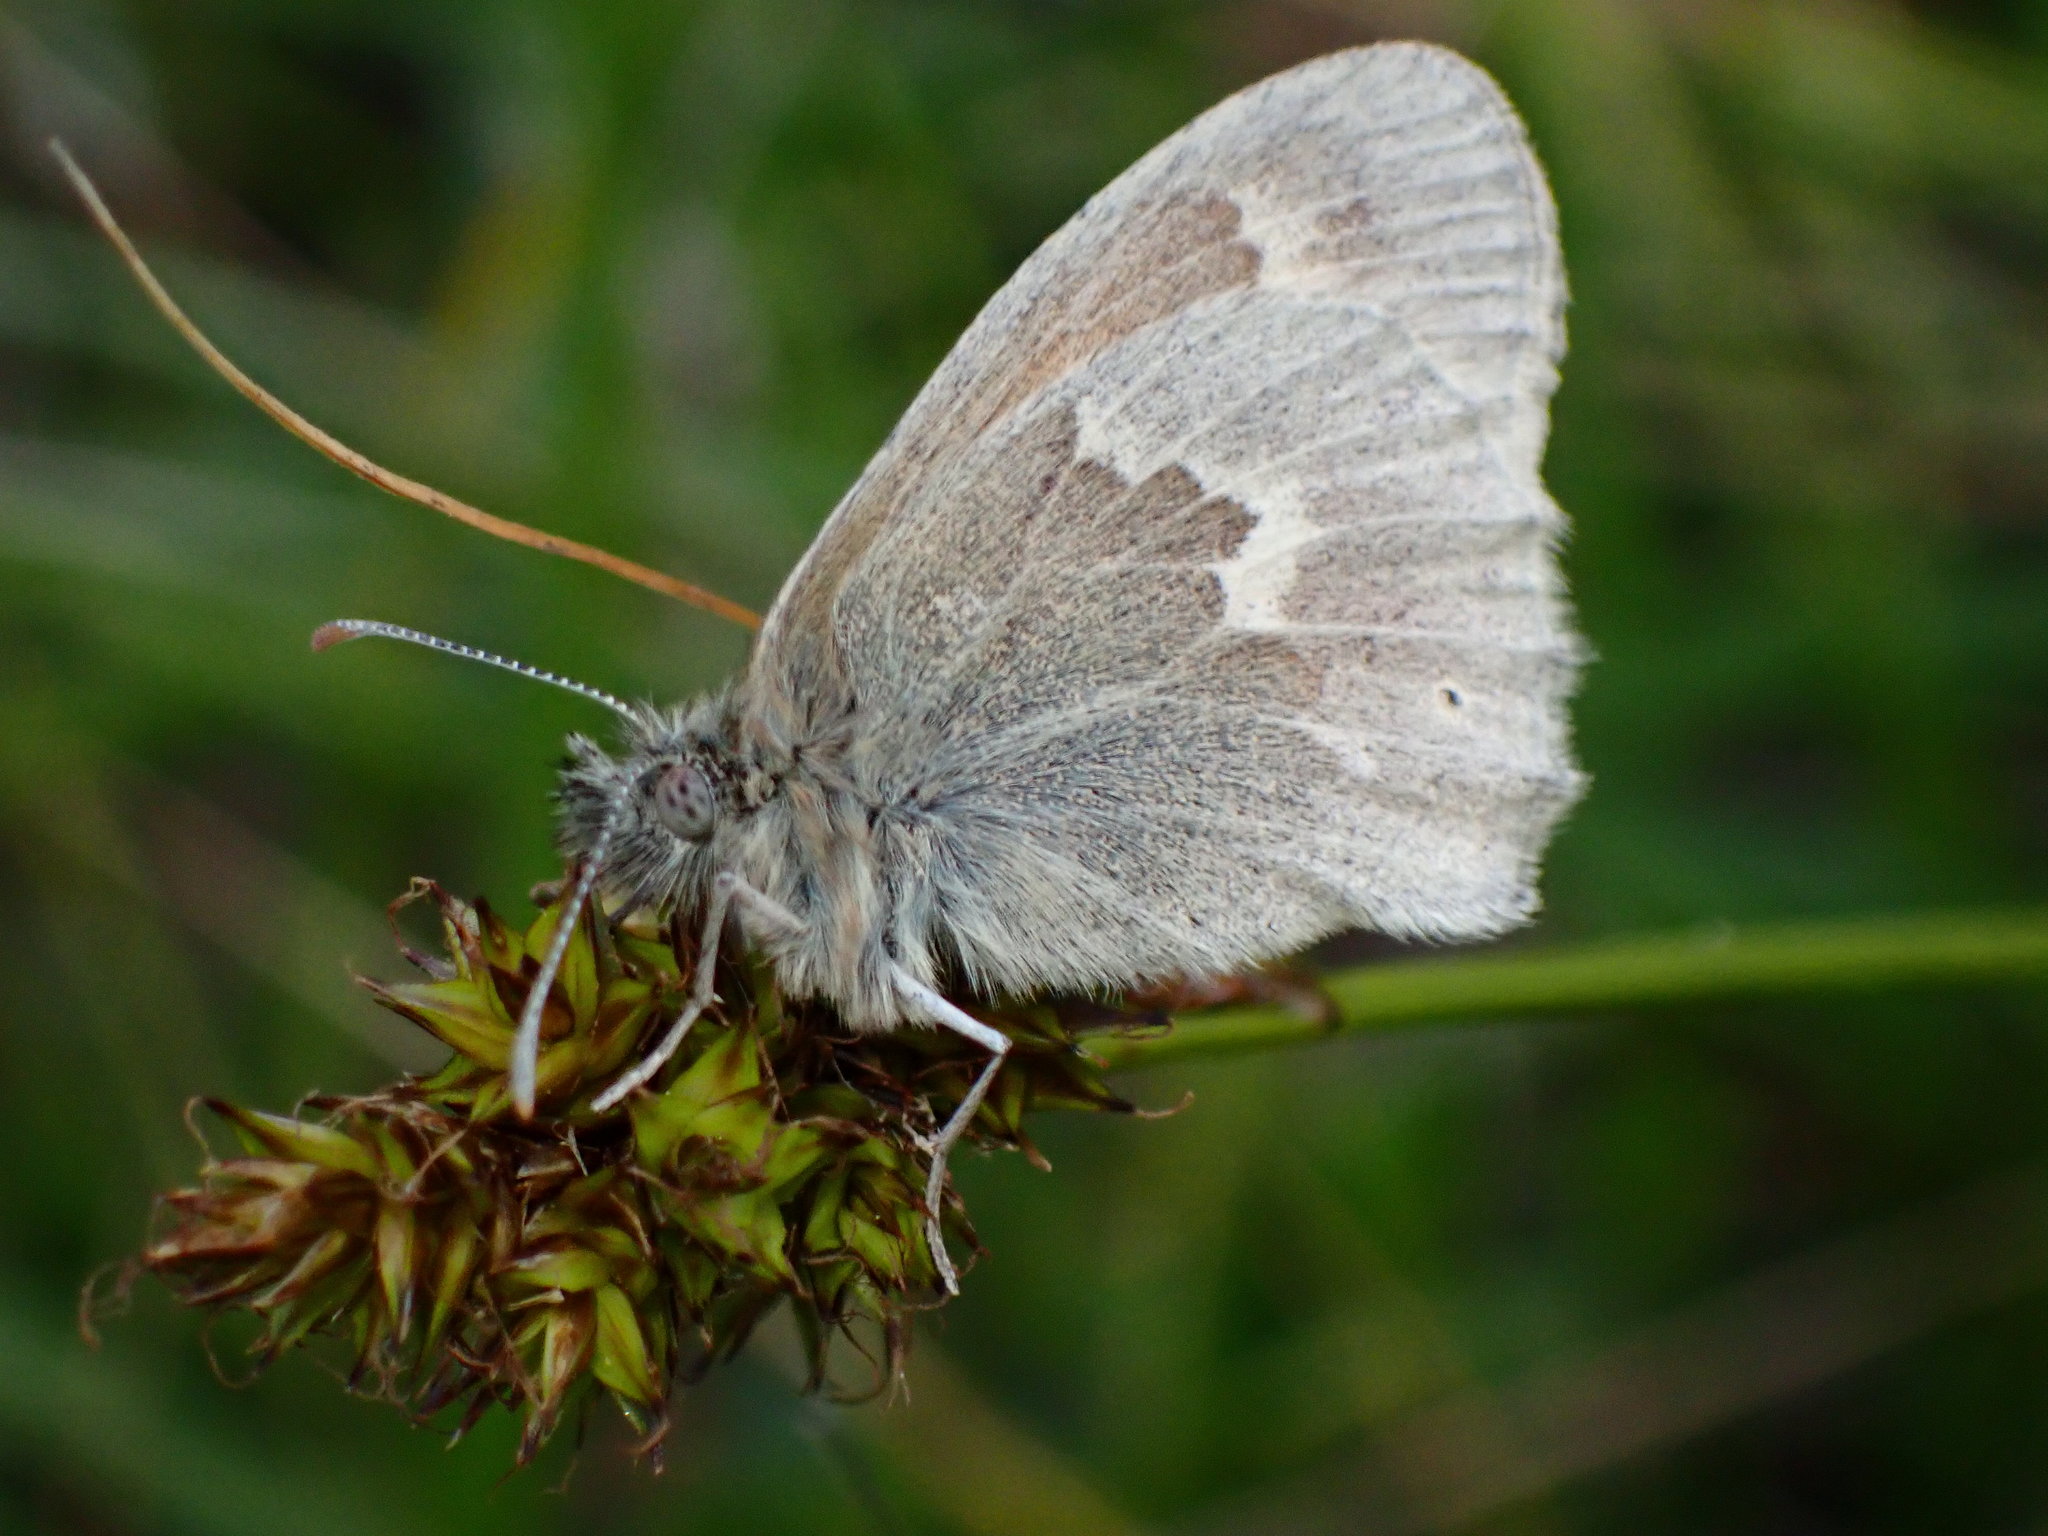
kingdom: Animalia
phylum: Arthropoda
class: Insecta
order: Lepidoptera
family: Nymphalidae
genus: Coenonympha
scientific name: Coenonympha california
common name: Common ringlet
